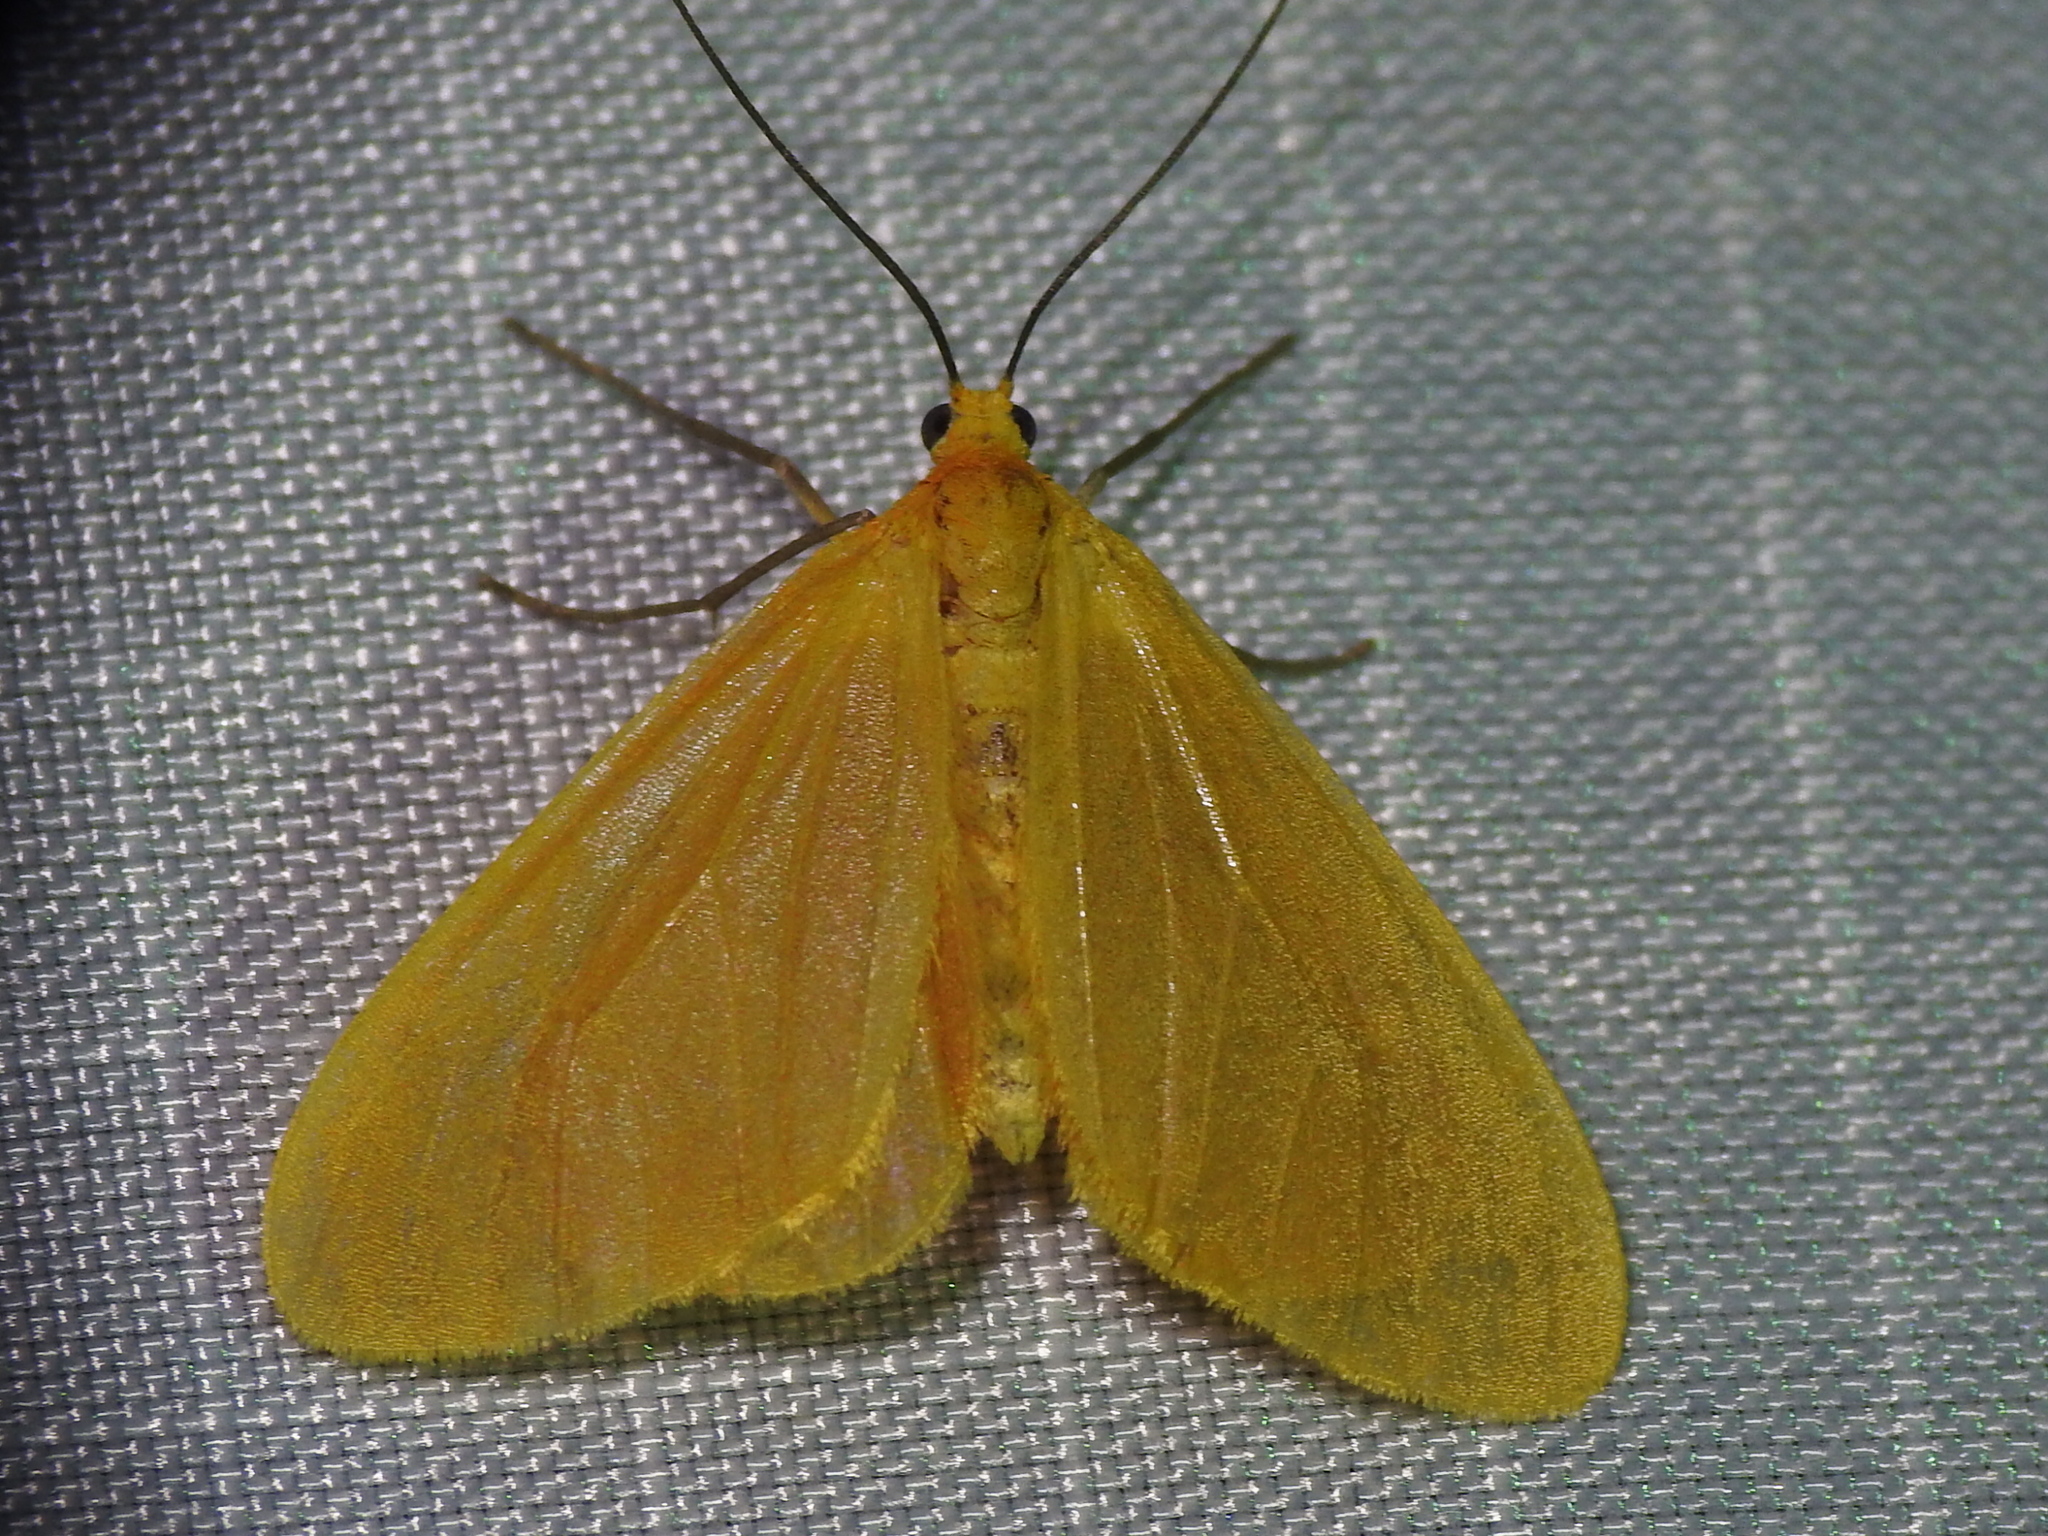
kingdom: Animalia
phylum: Arthropoda
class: Insecta
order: Lepidoptera
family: Geometridae
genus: Eubaphe
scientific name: Eubaphe unicolor
